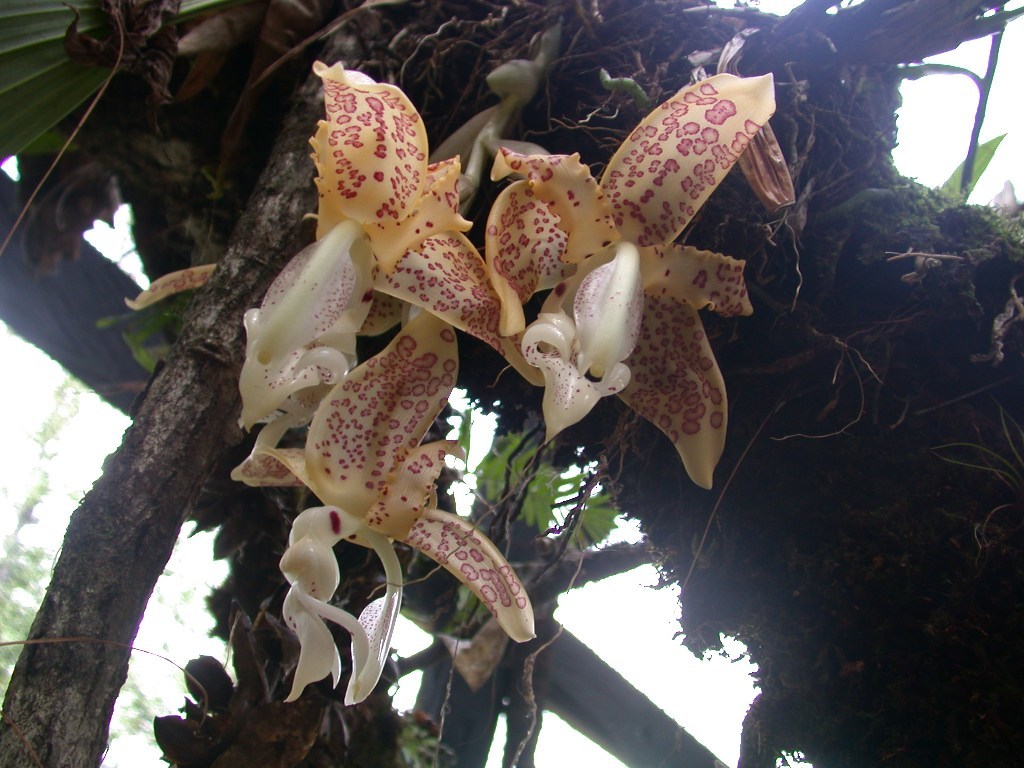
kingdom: Plantae
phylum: Tracheophyta
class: Liliopsida
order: Asparagales
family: Orchidaceae
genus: Stanhopea
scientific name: Stanhopea dodsoniana
